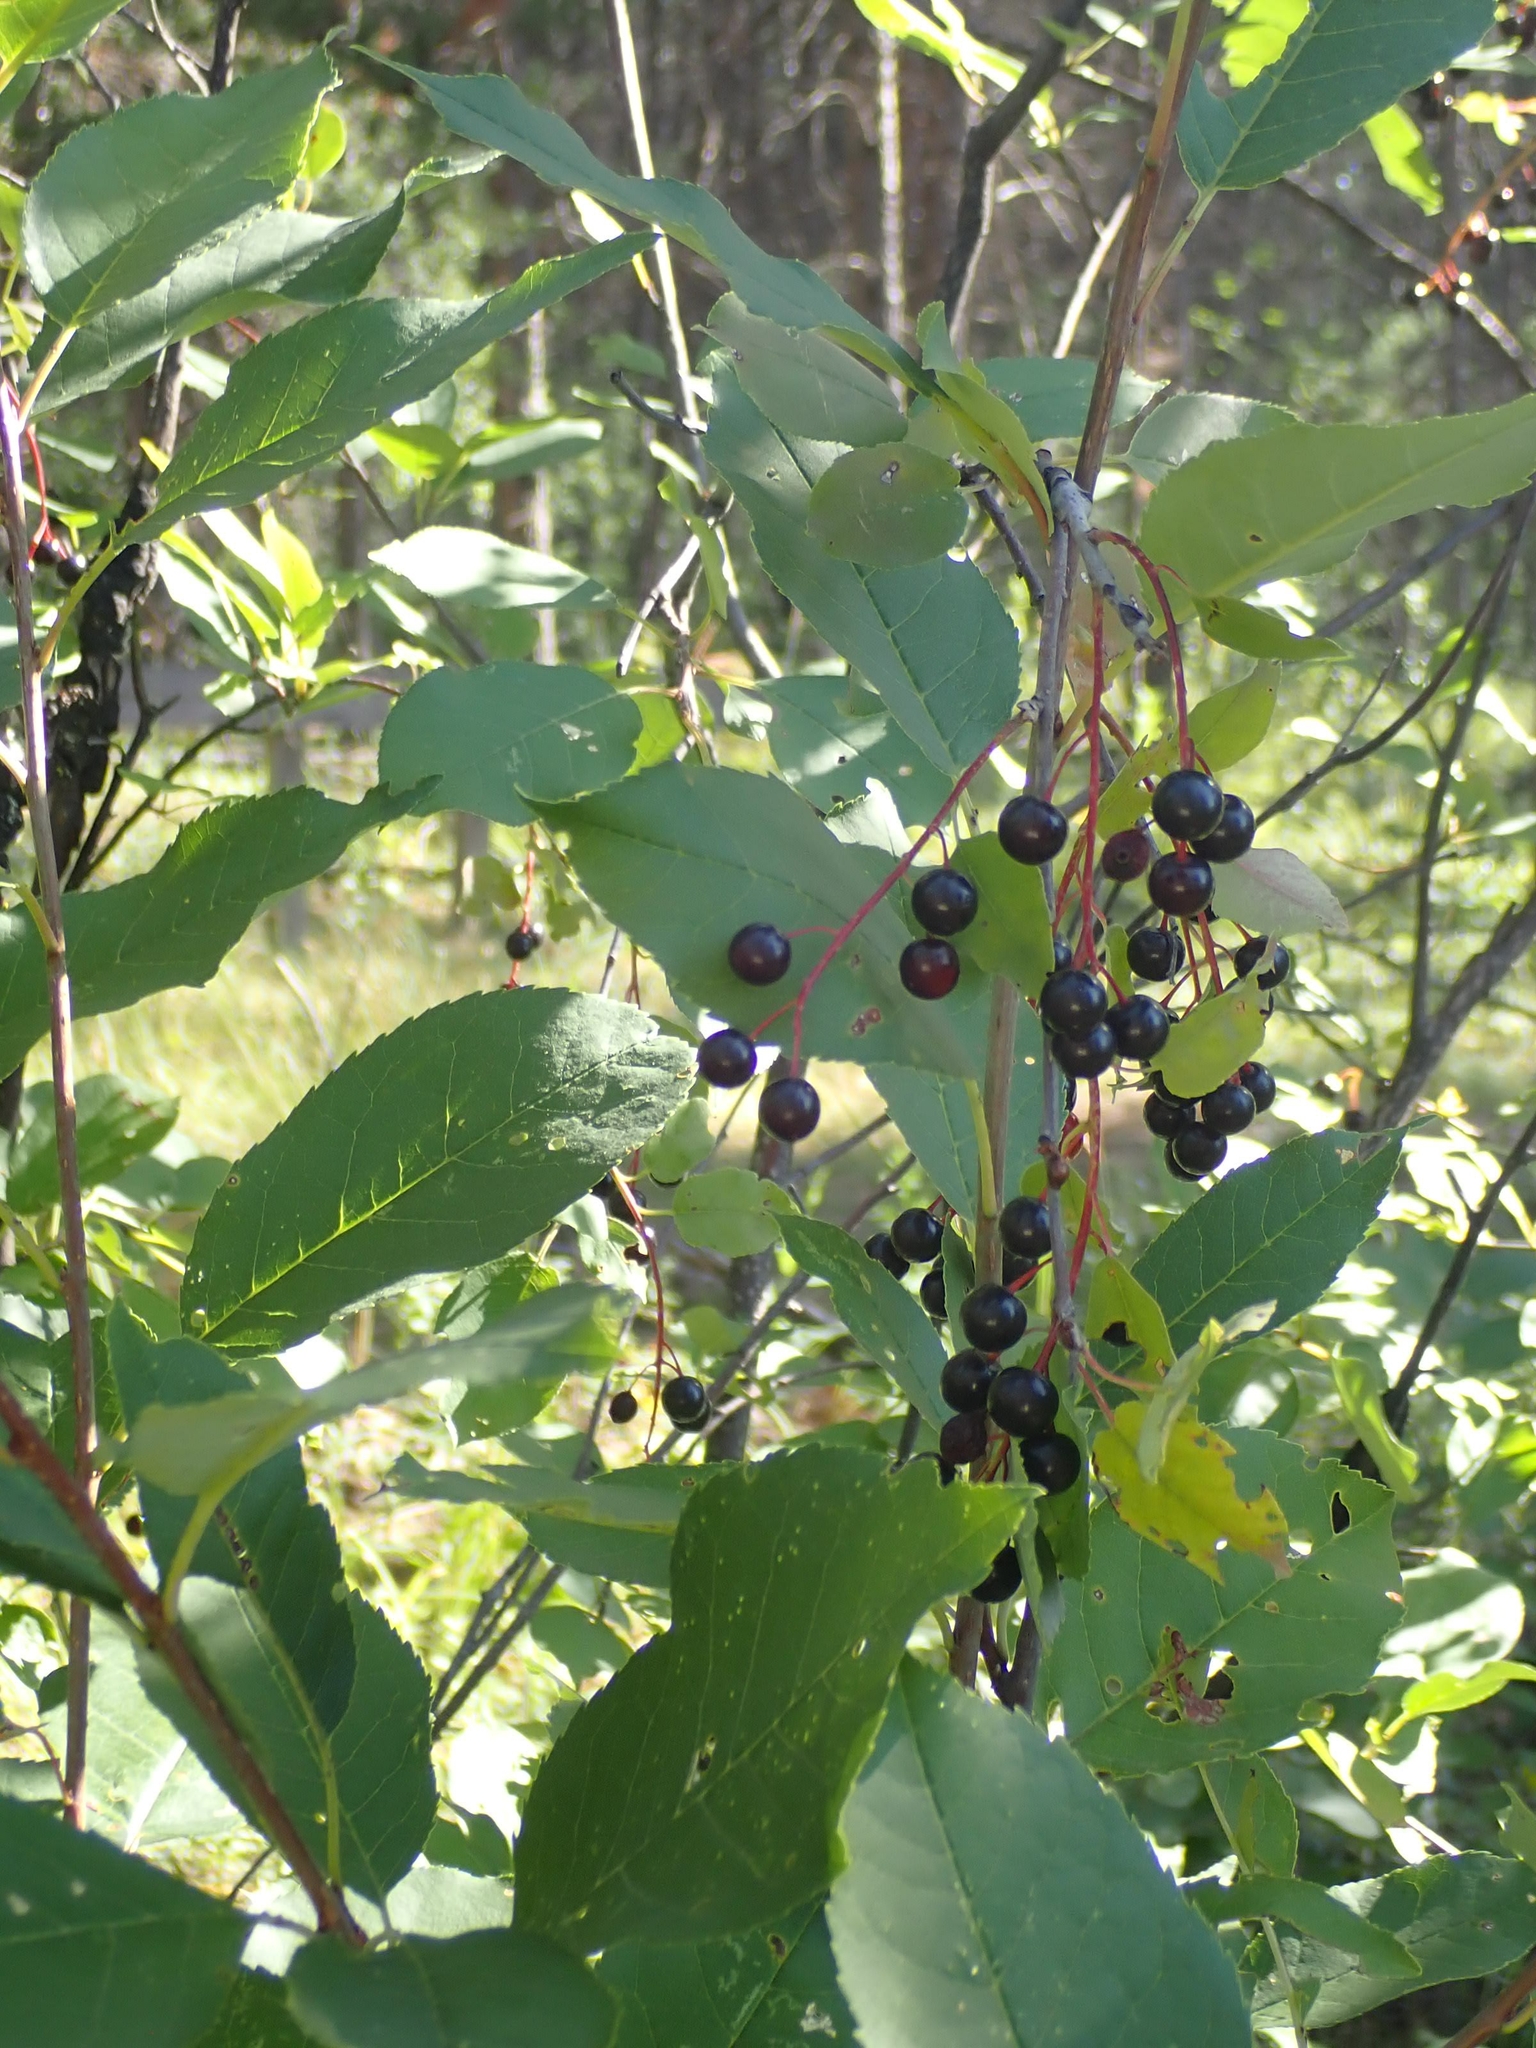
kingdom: Plantae
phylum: Tracheophyta
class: Magnoliopsida
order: Rosales
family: Rosaceae
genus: Prunus
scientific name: Prunus virginiana
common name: Chokecherry
